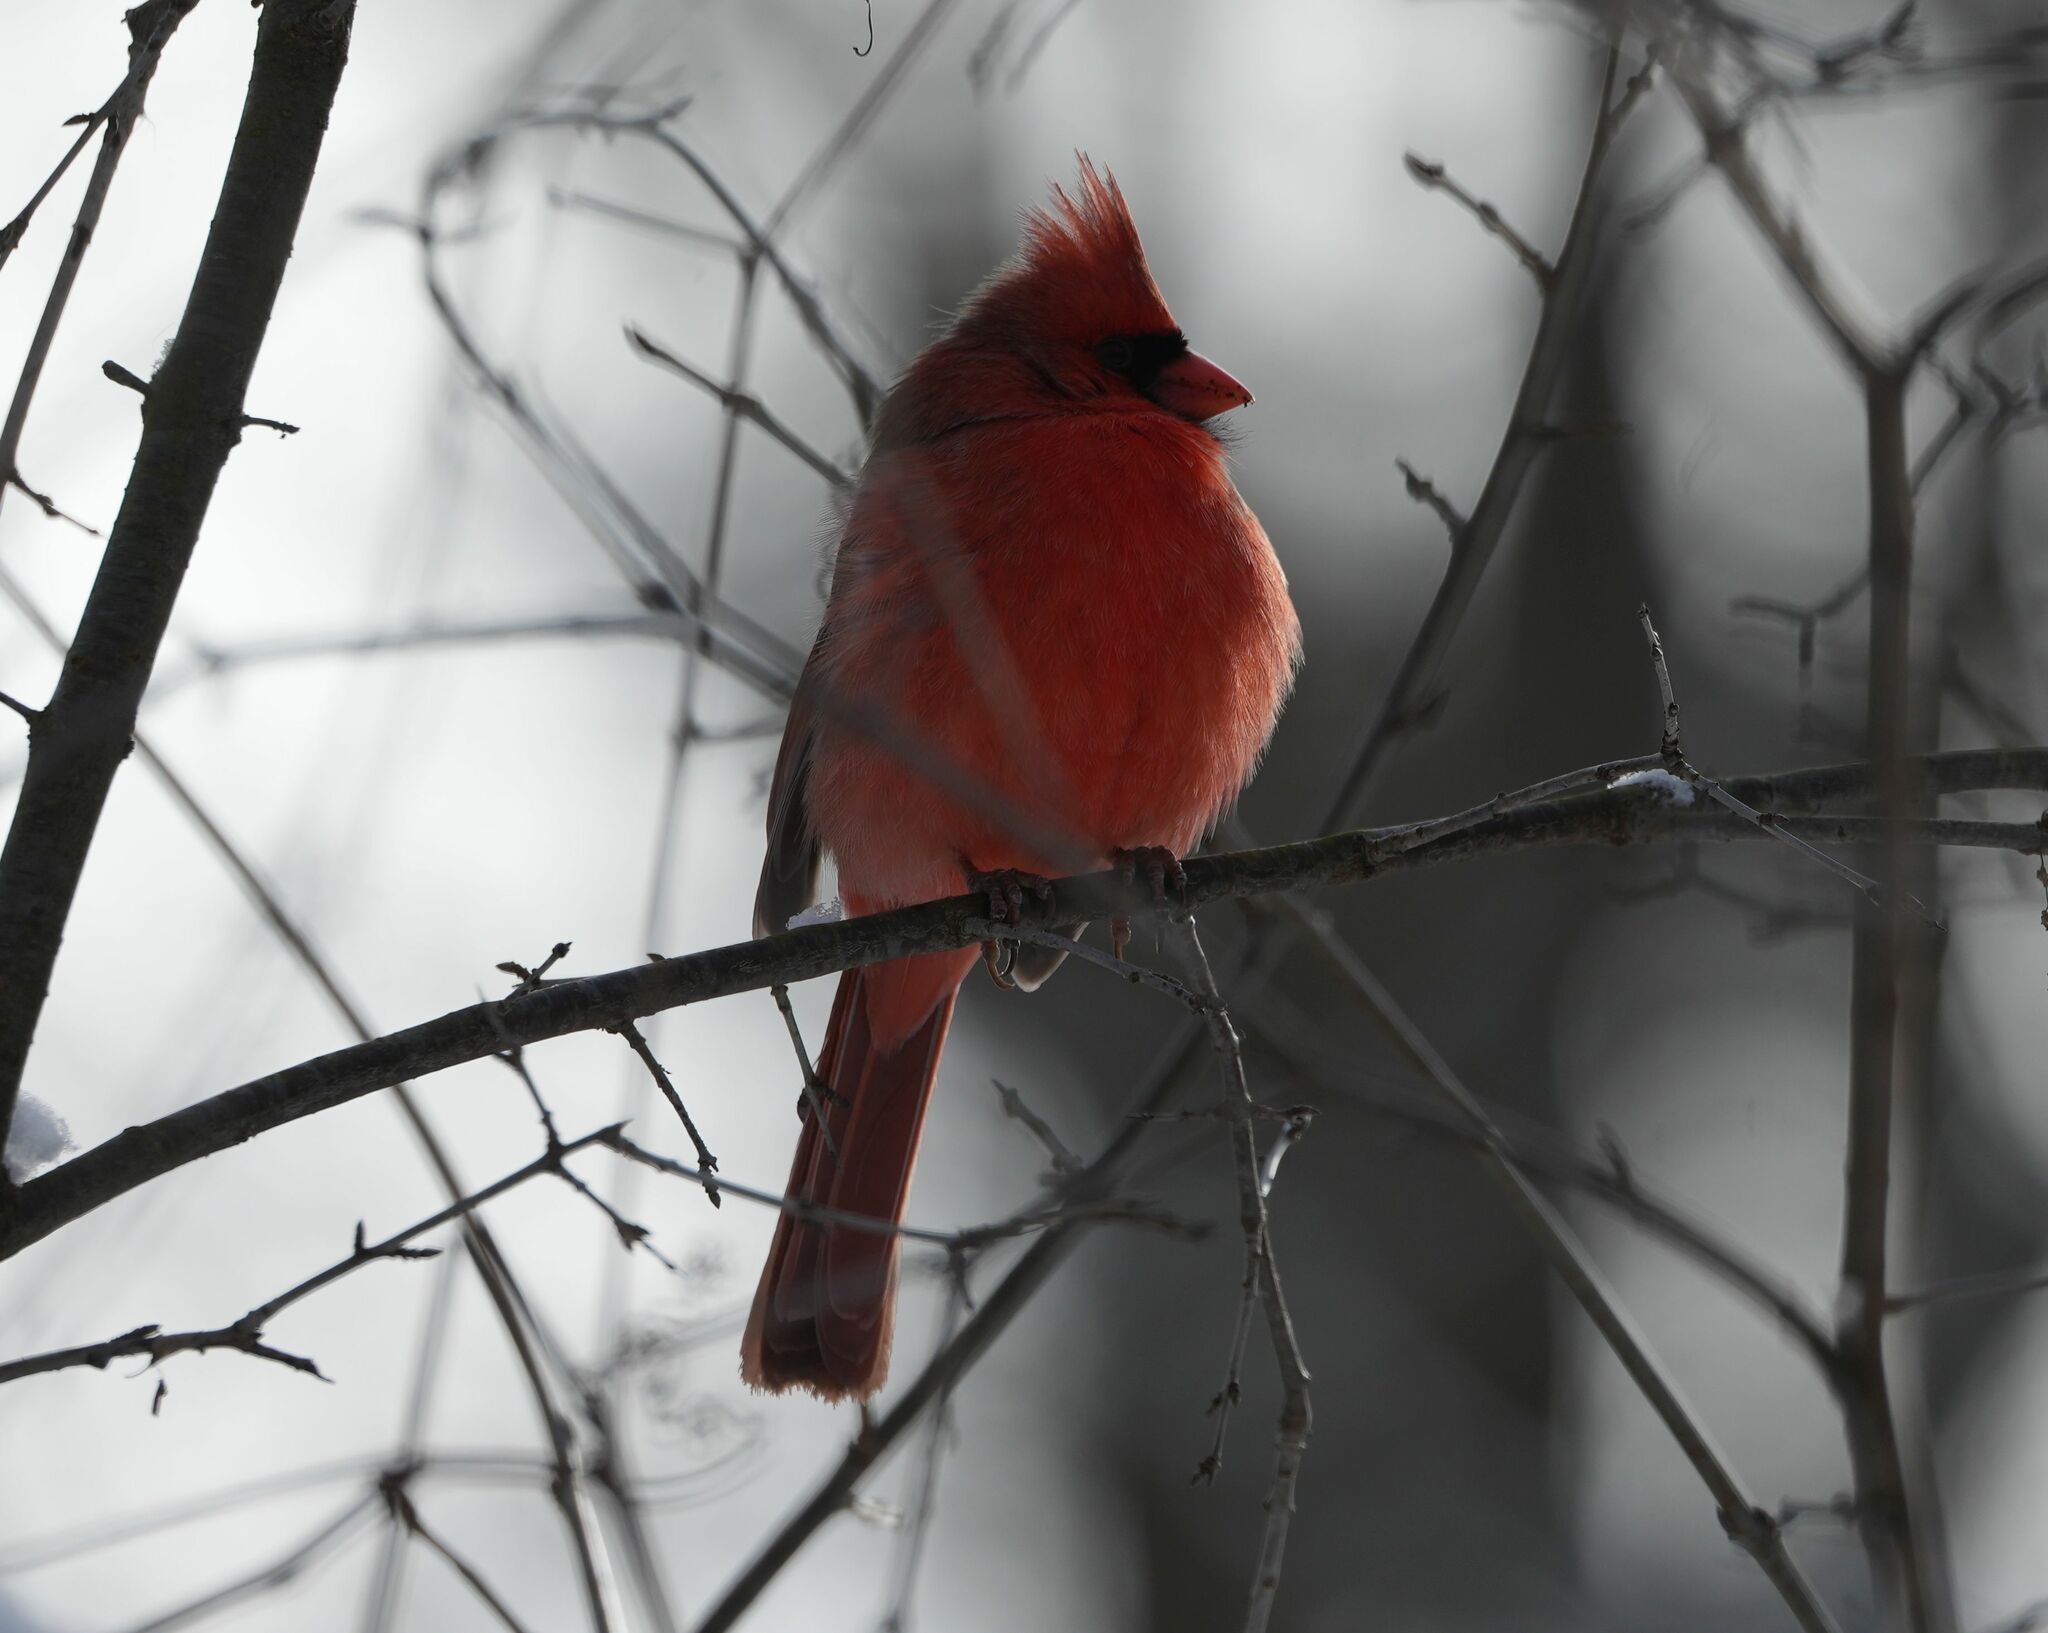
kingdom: Animalia
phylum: Chordata
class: Aves
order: Passeriformes
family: Cardinalidae
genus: Cardinalis
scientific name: Cardinalis cardinalis
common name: Northern cardinal
